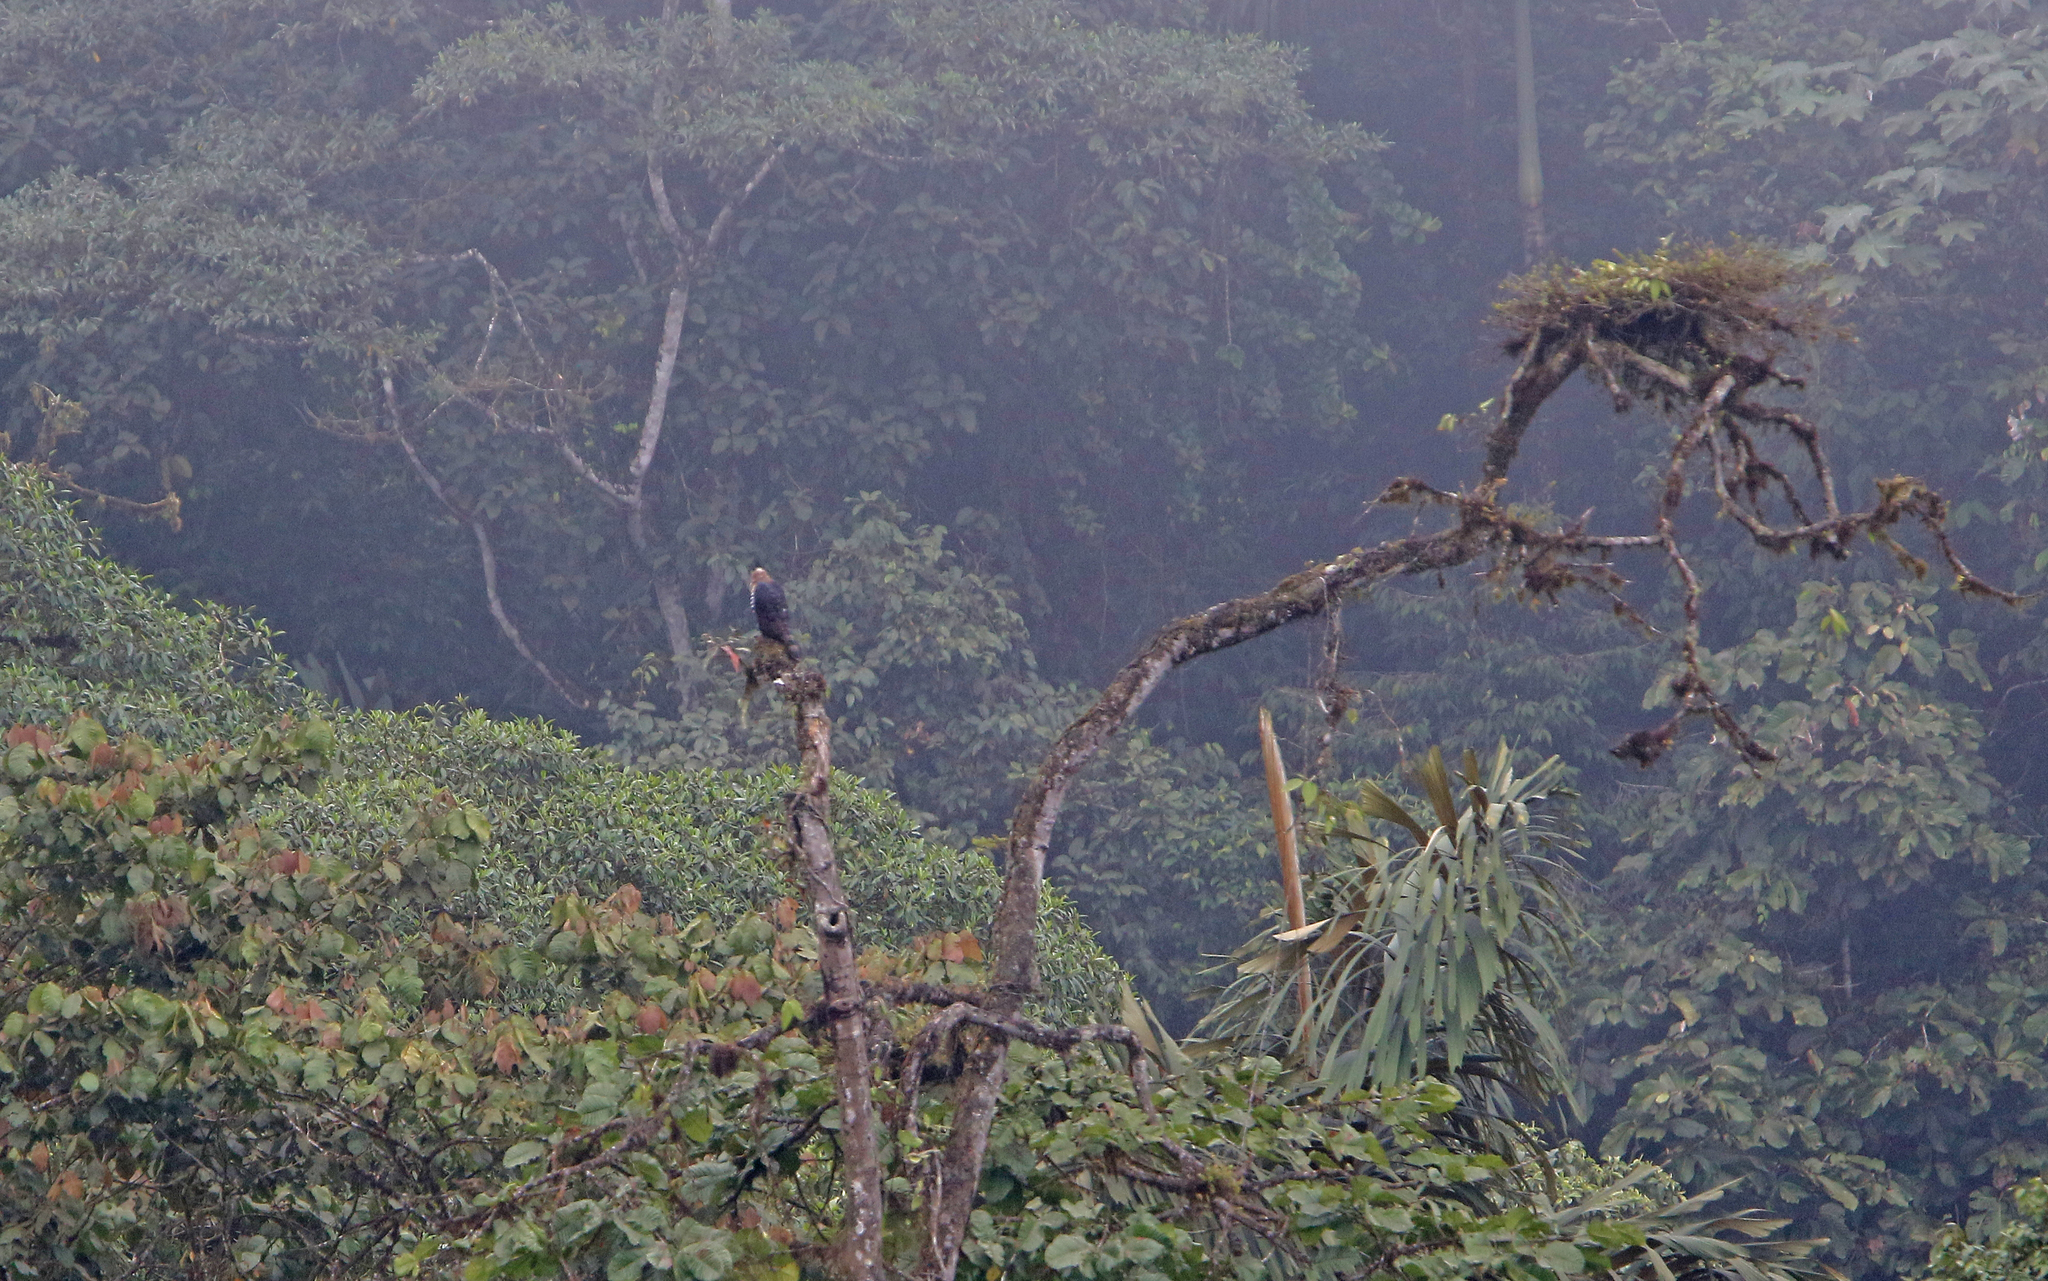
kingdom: Animalia
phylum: Chordata
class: Aves
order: Accipitriformes
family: Accipitridae
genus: Spizaetus
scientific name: Spizaetus ornatus
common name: Ornate hawk-eagle
